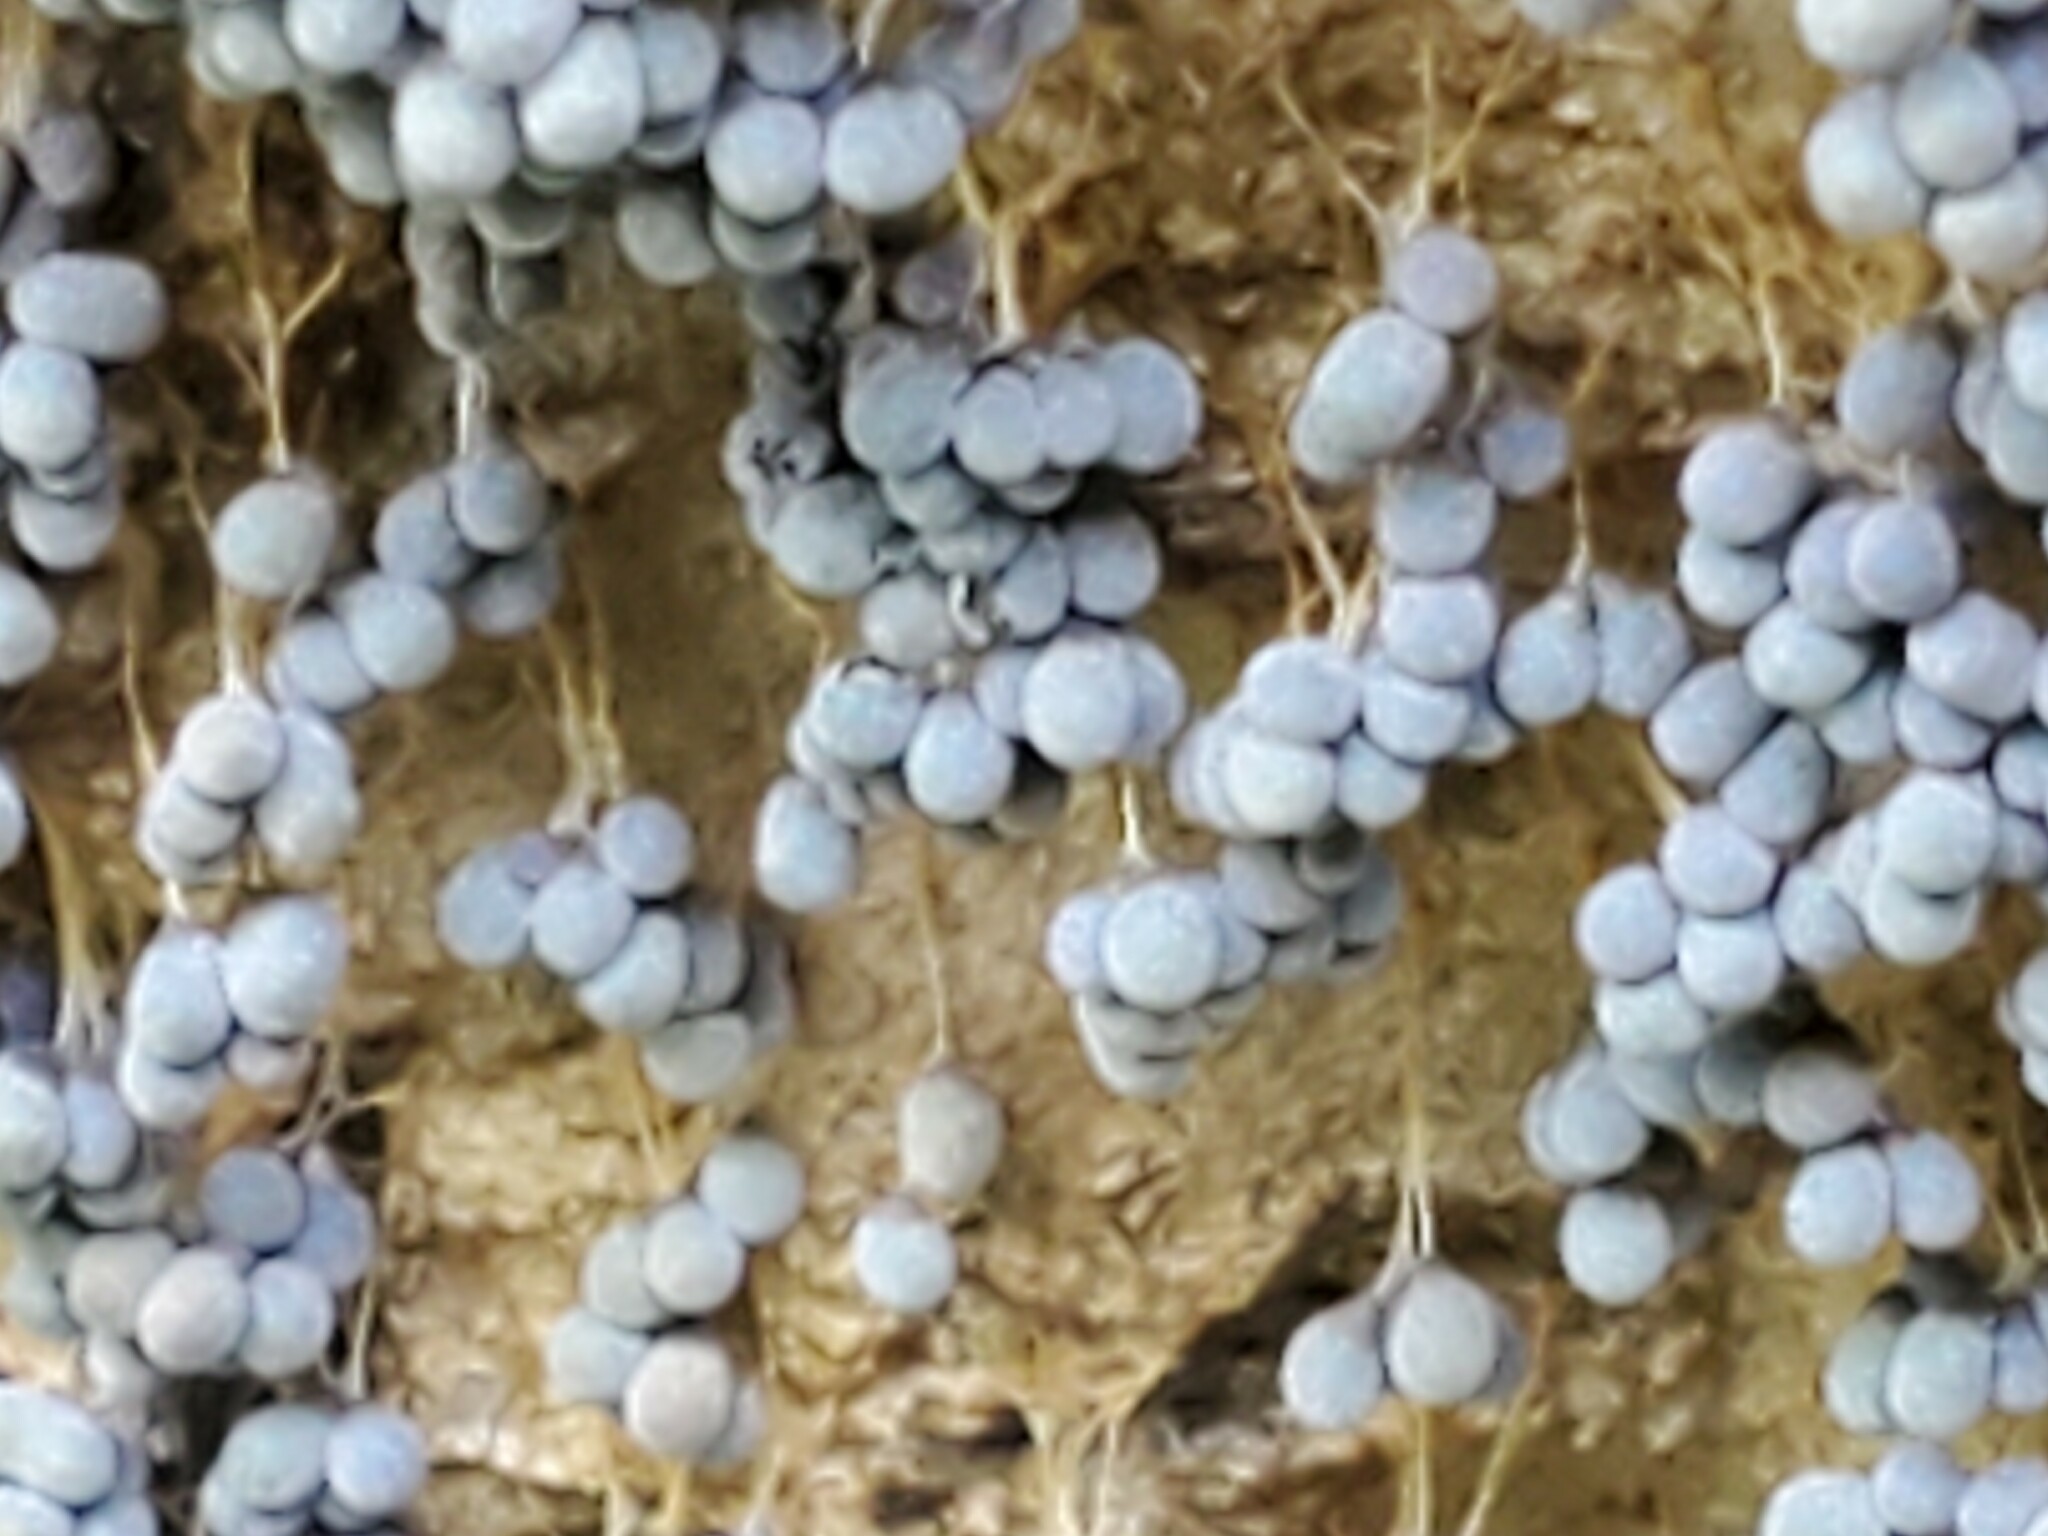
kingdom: Protozoa
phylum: Mycetozoa
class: Myxomycetes
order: Physarales
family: Physaraceae
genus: Badhamia
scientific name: Badhamia utricularis
